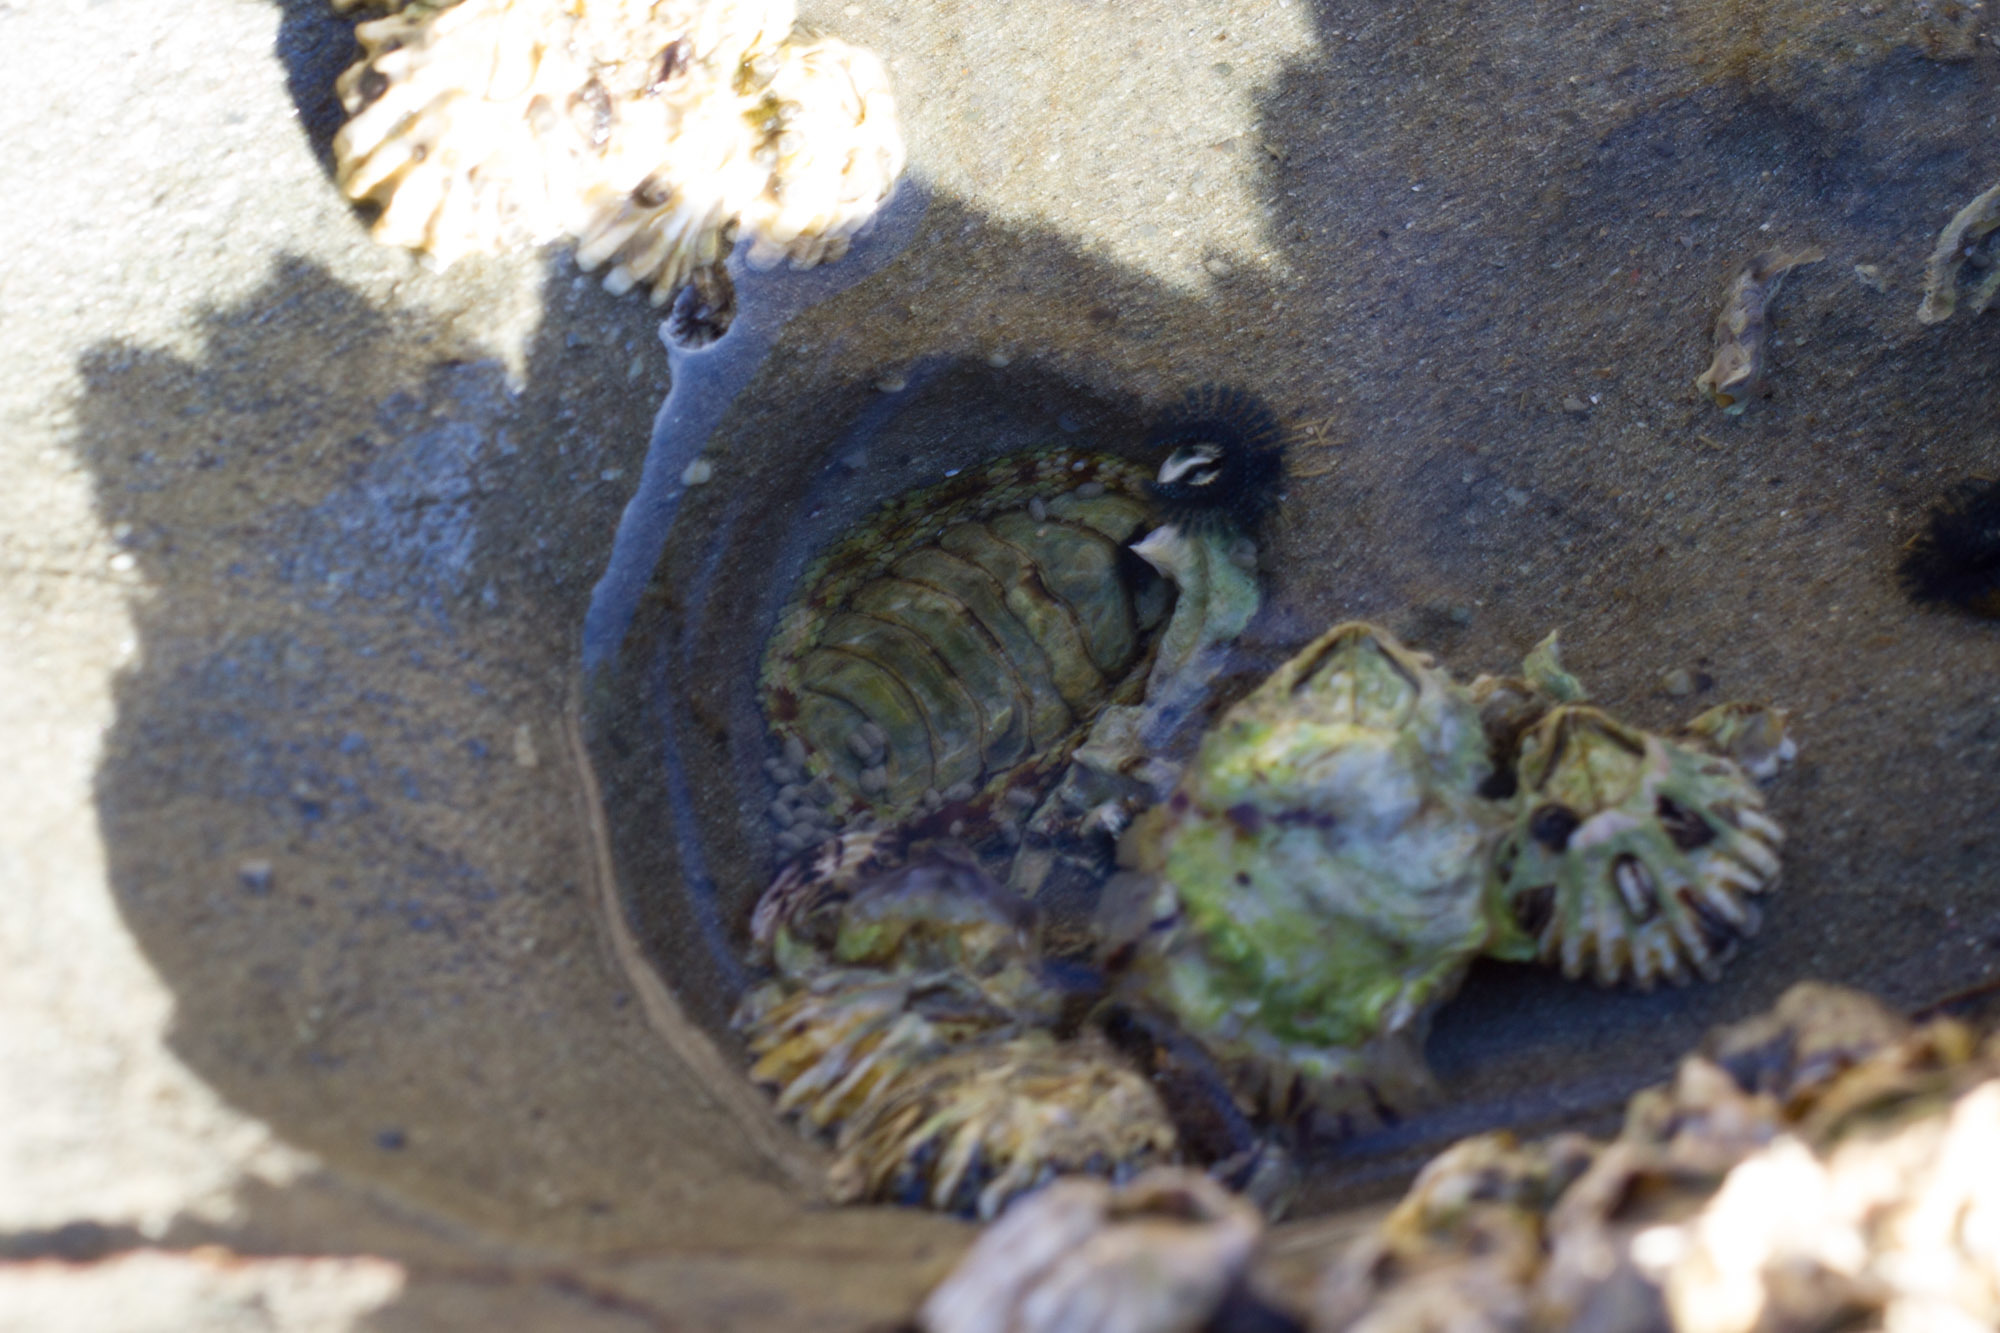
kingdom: Animalia
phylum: Mollusca
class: Polyplacophora
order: Chitonida
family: Chitonidae
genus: Sypharochiton
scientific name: Sypharochiton pelliserpentis
